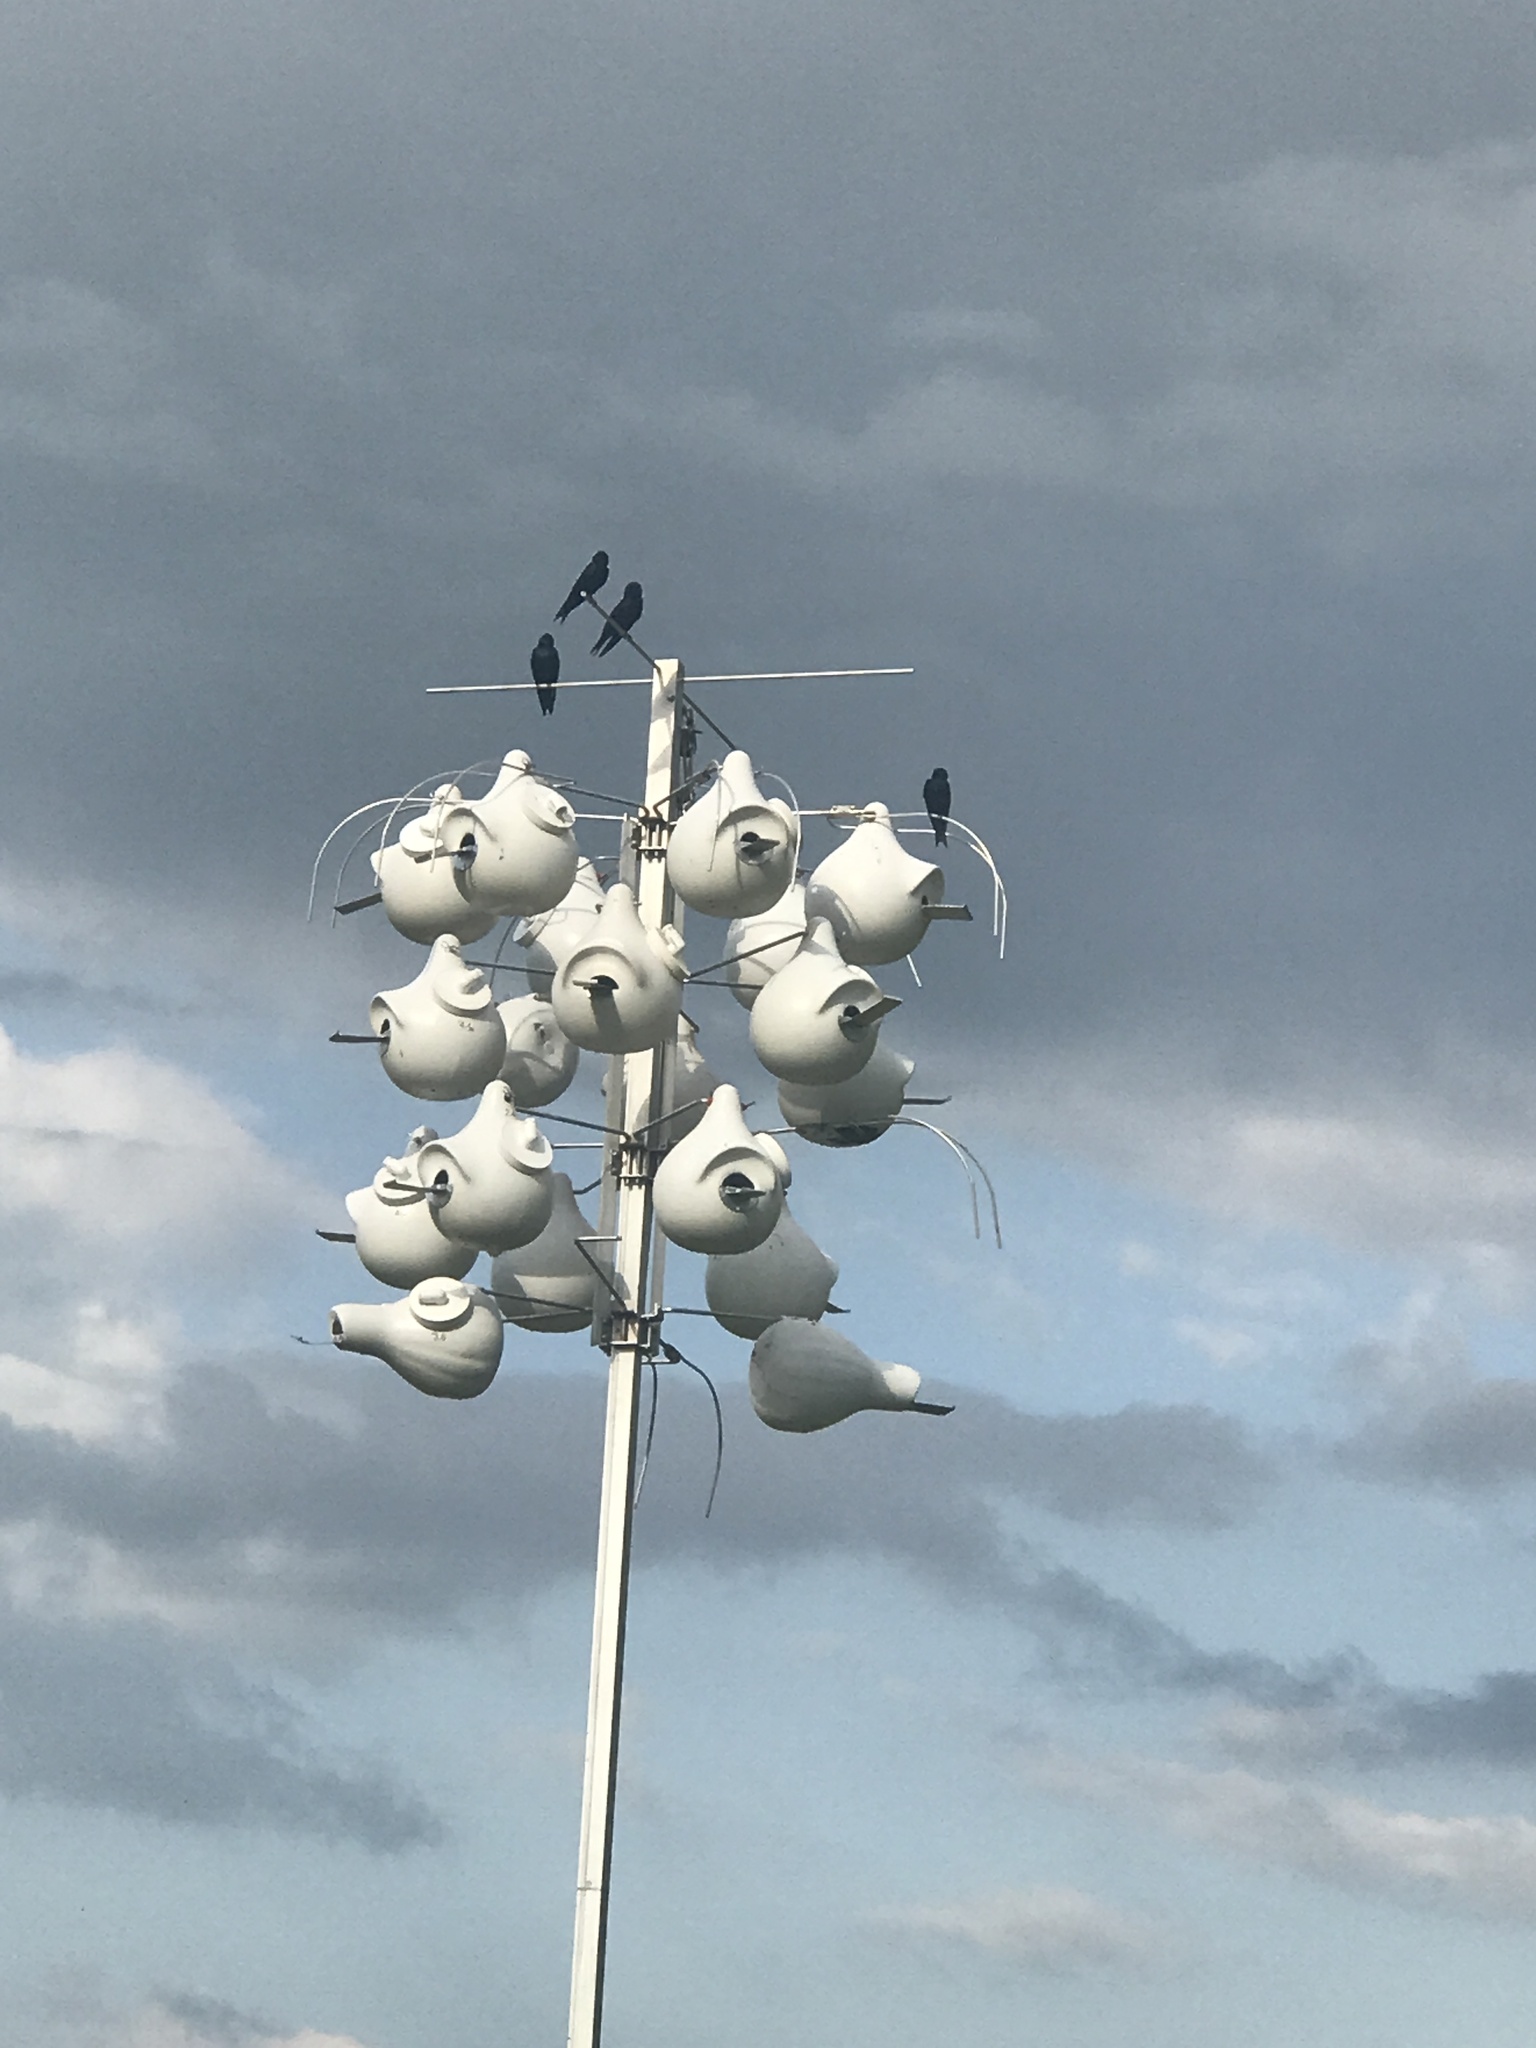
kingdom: Animalia
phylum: Chordata
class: Aves
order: Passeriformes
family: Hirundinidae
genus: Progne
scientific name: Progne subis
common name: Purple martin
